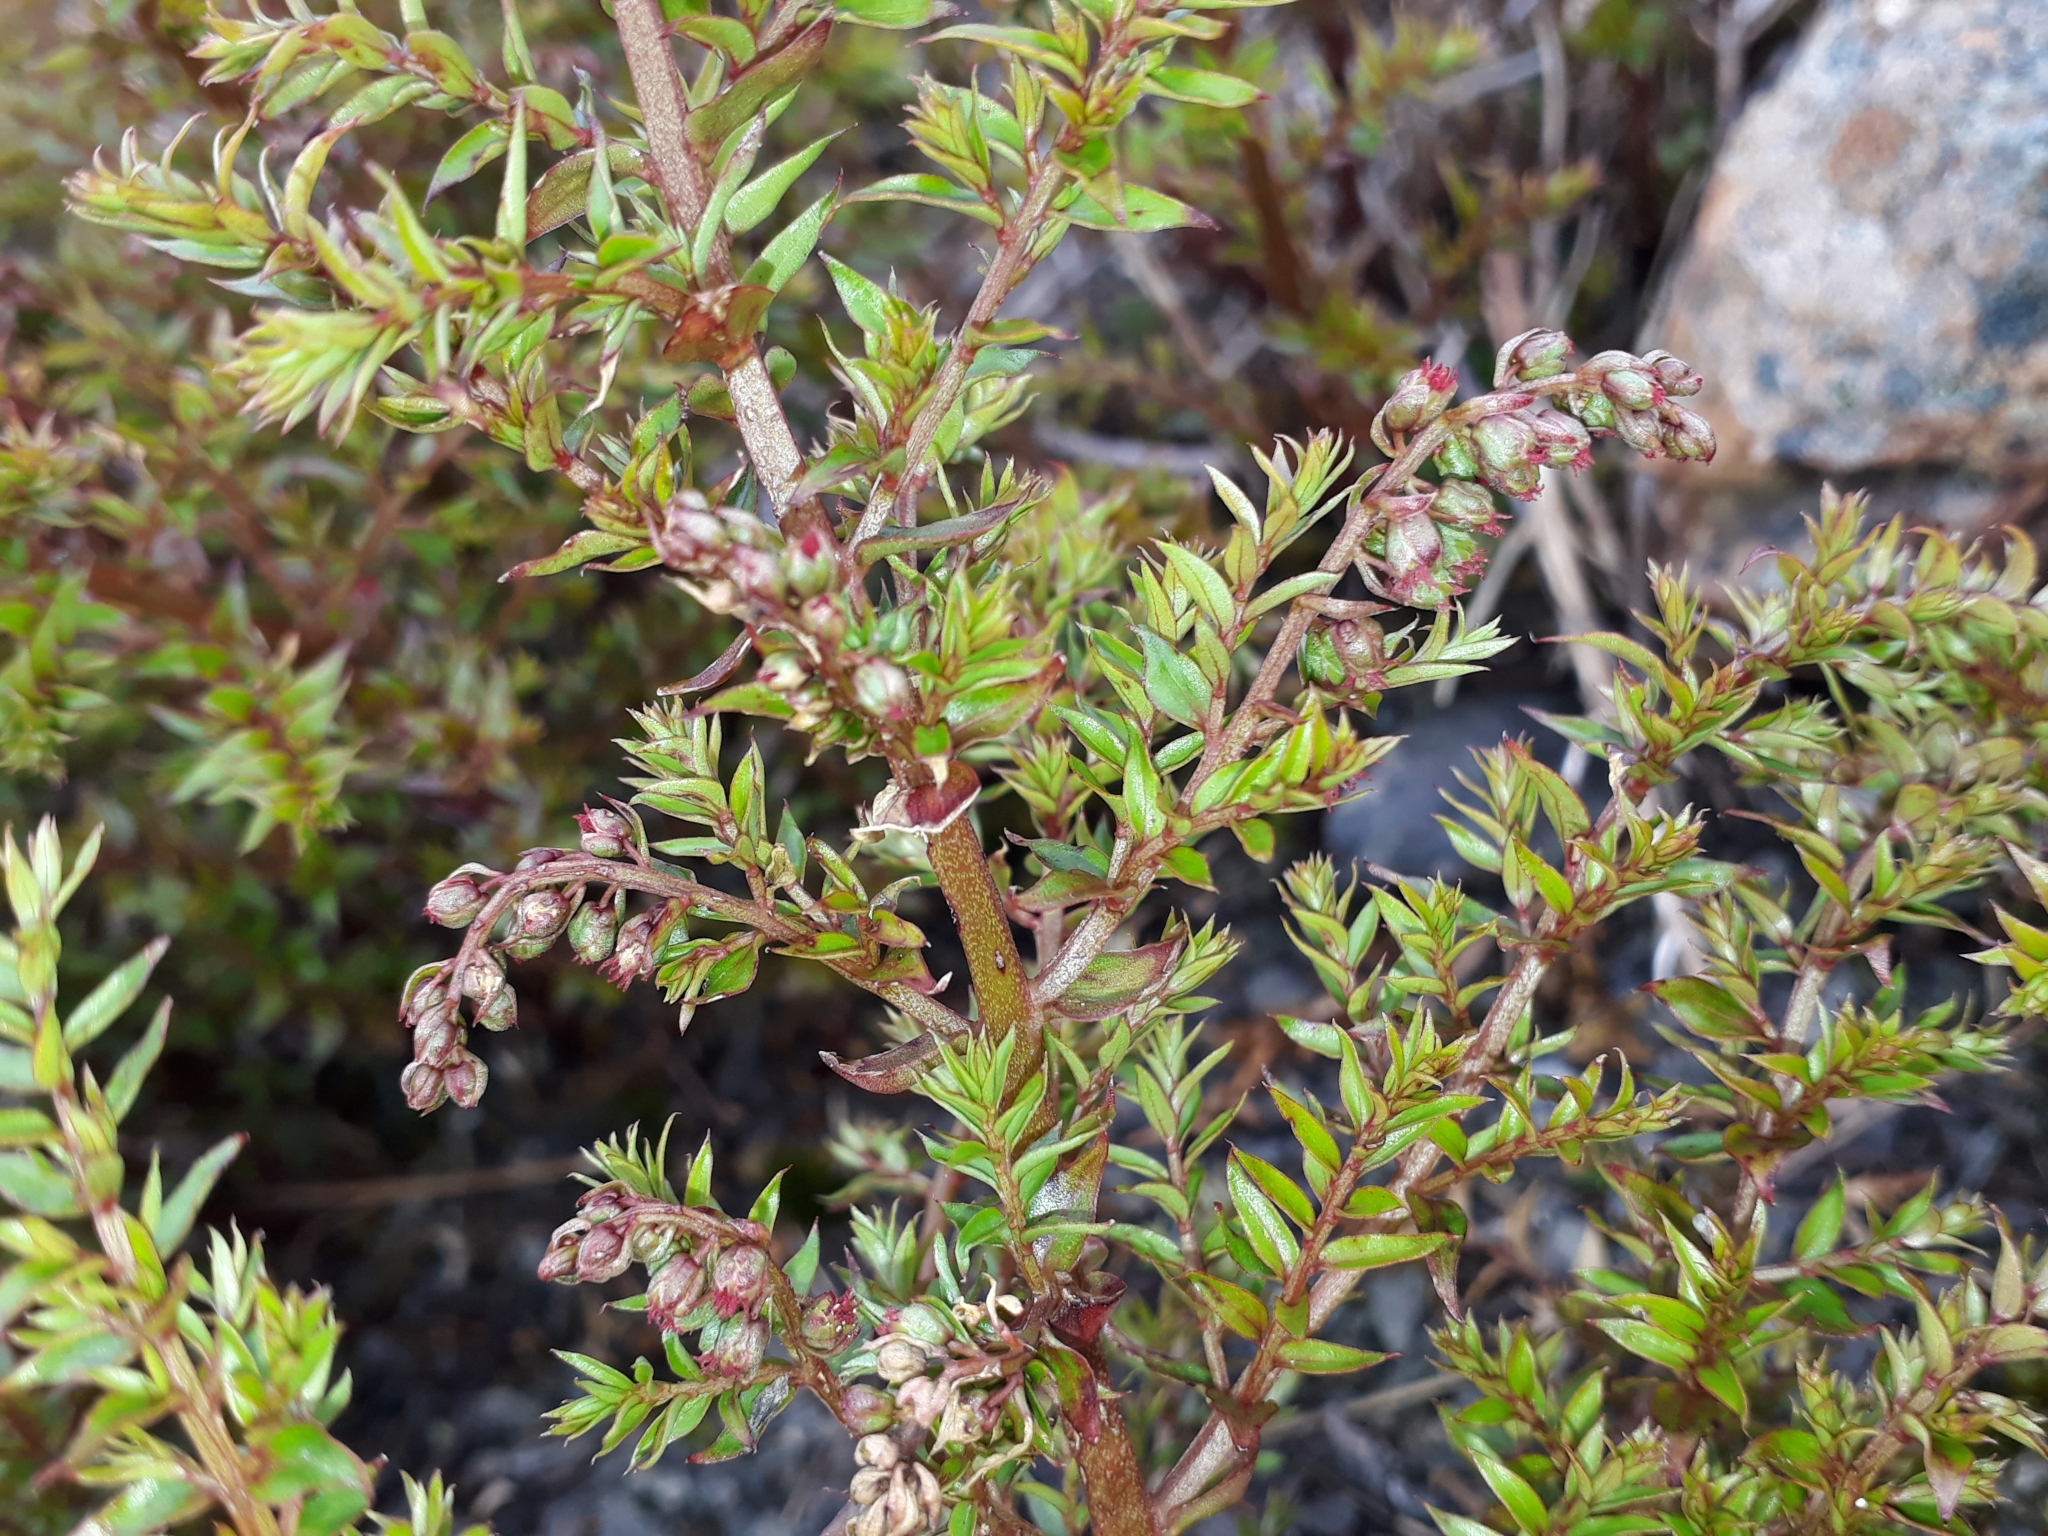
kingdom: Plantae
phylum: Tracheophyta
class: Magnoliopsida
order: Cucurbitales
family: Coriariaceae
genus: Coriaria
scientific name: Coriaria plumosa
